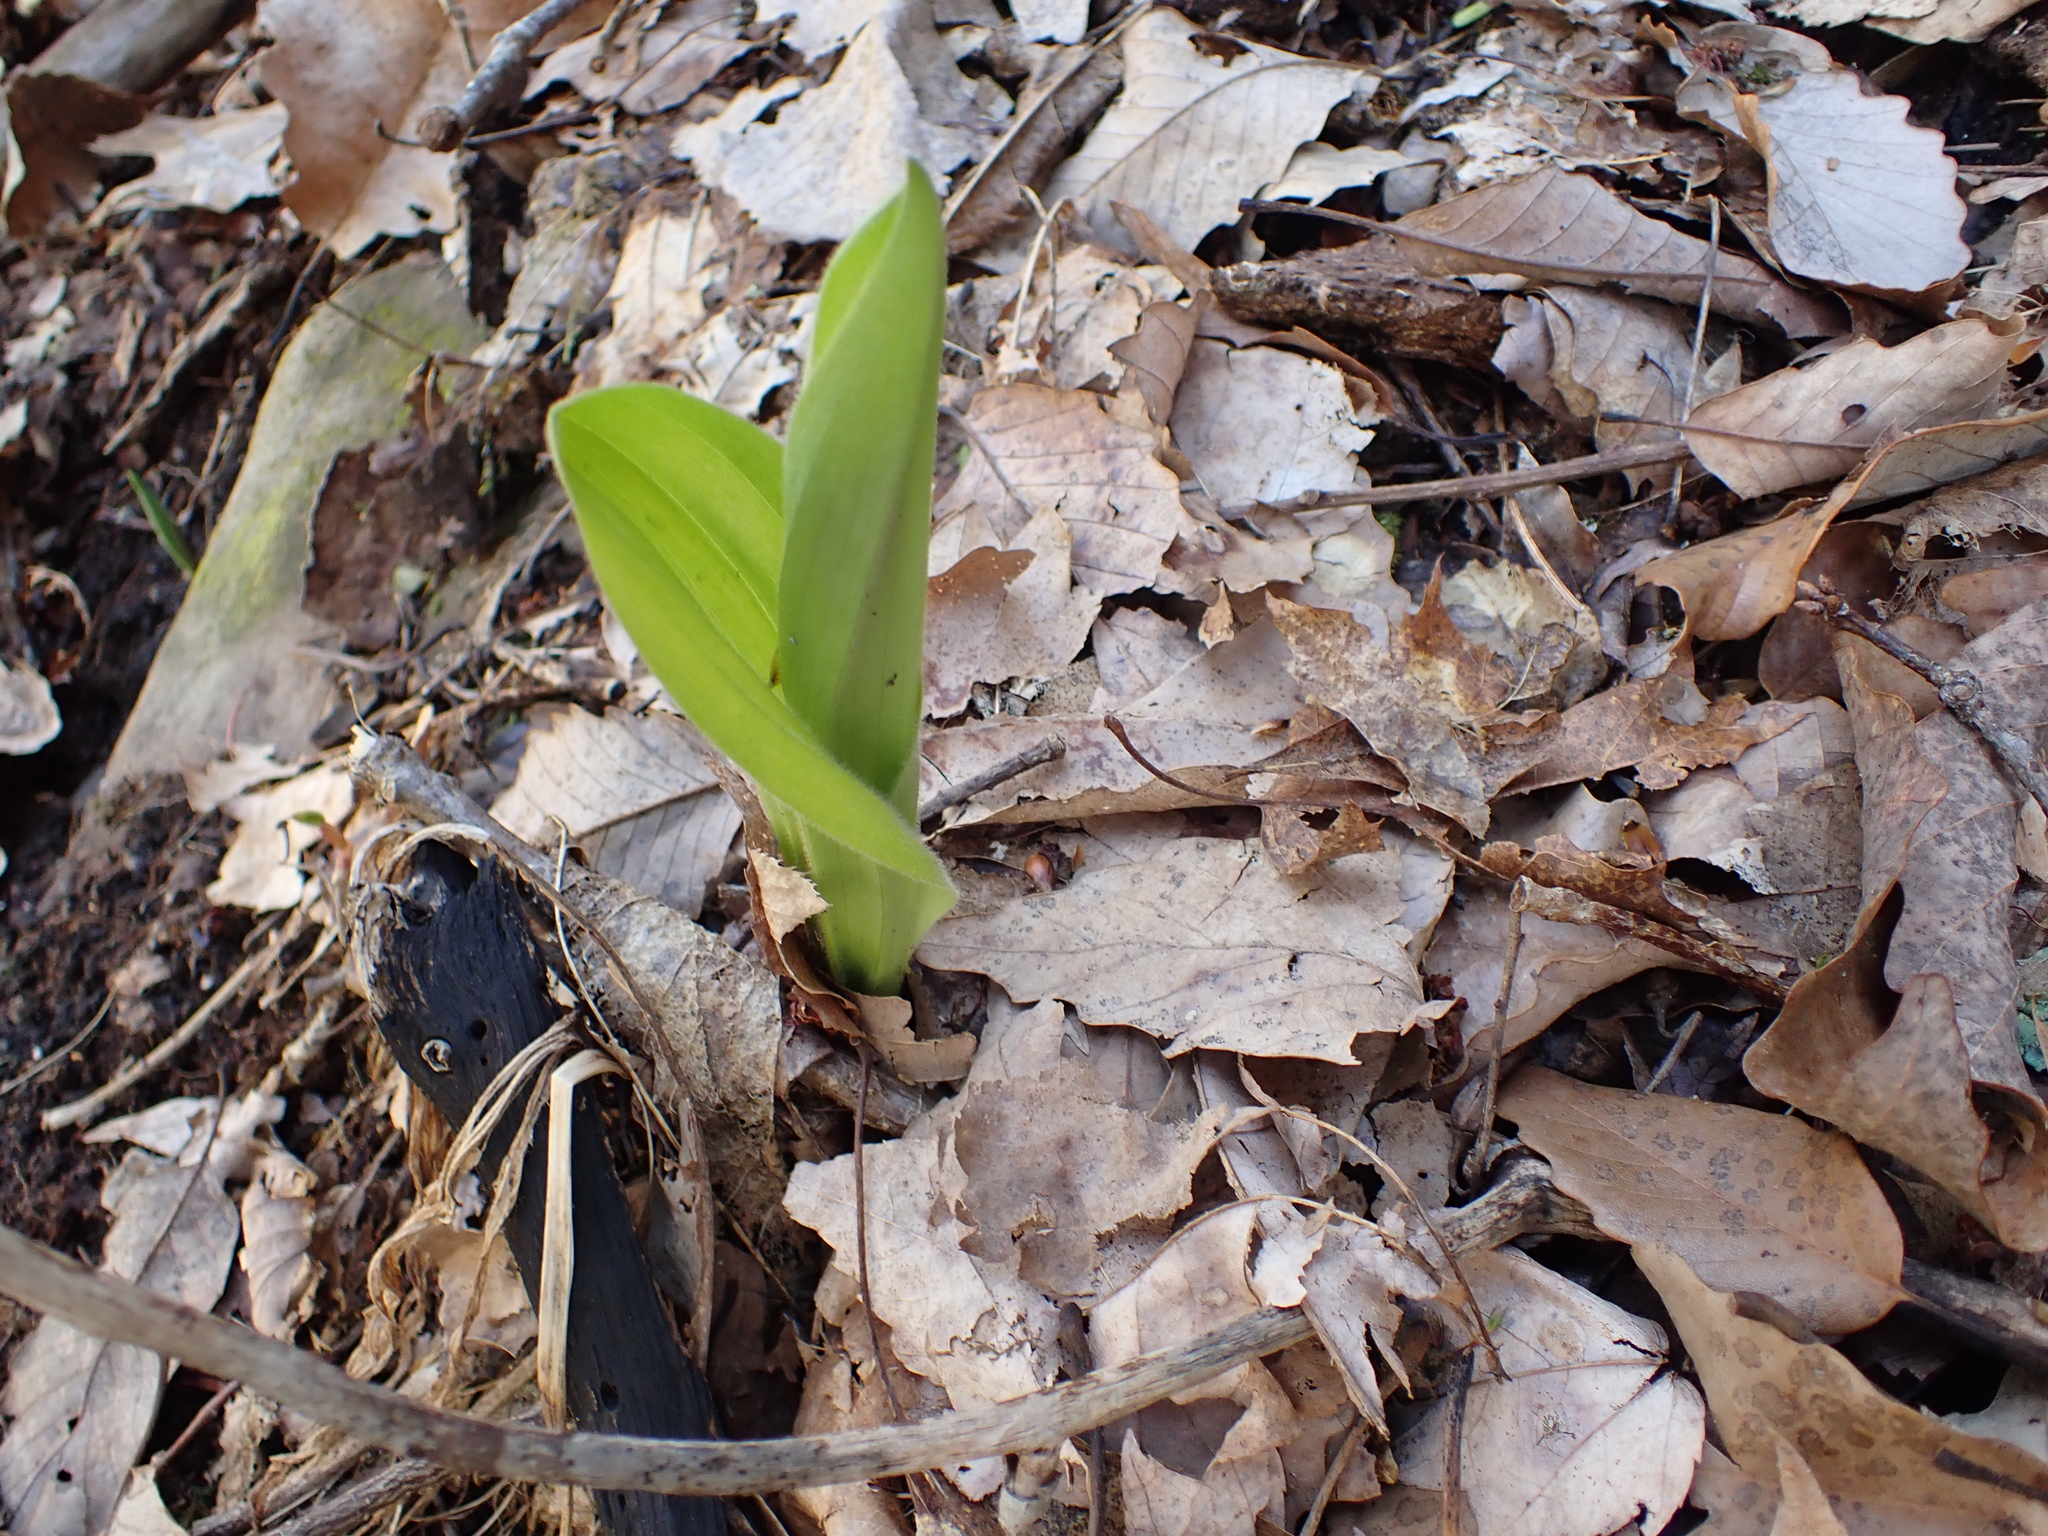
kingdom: Plantae
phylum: Tracheophyta
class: Liliopsida
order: Asparagales
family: Orchidaceae
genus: Cypripedium
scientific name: Cypripedium acaule
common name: Pink lady's-slipper
